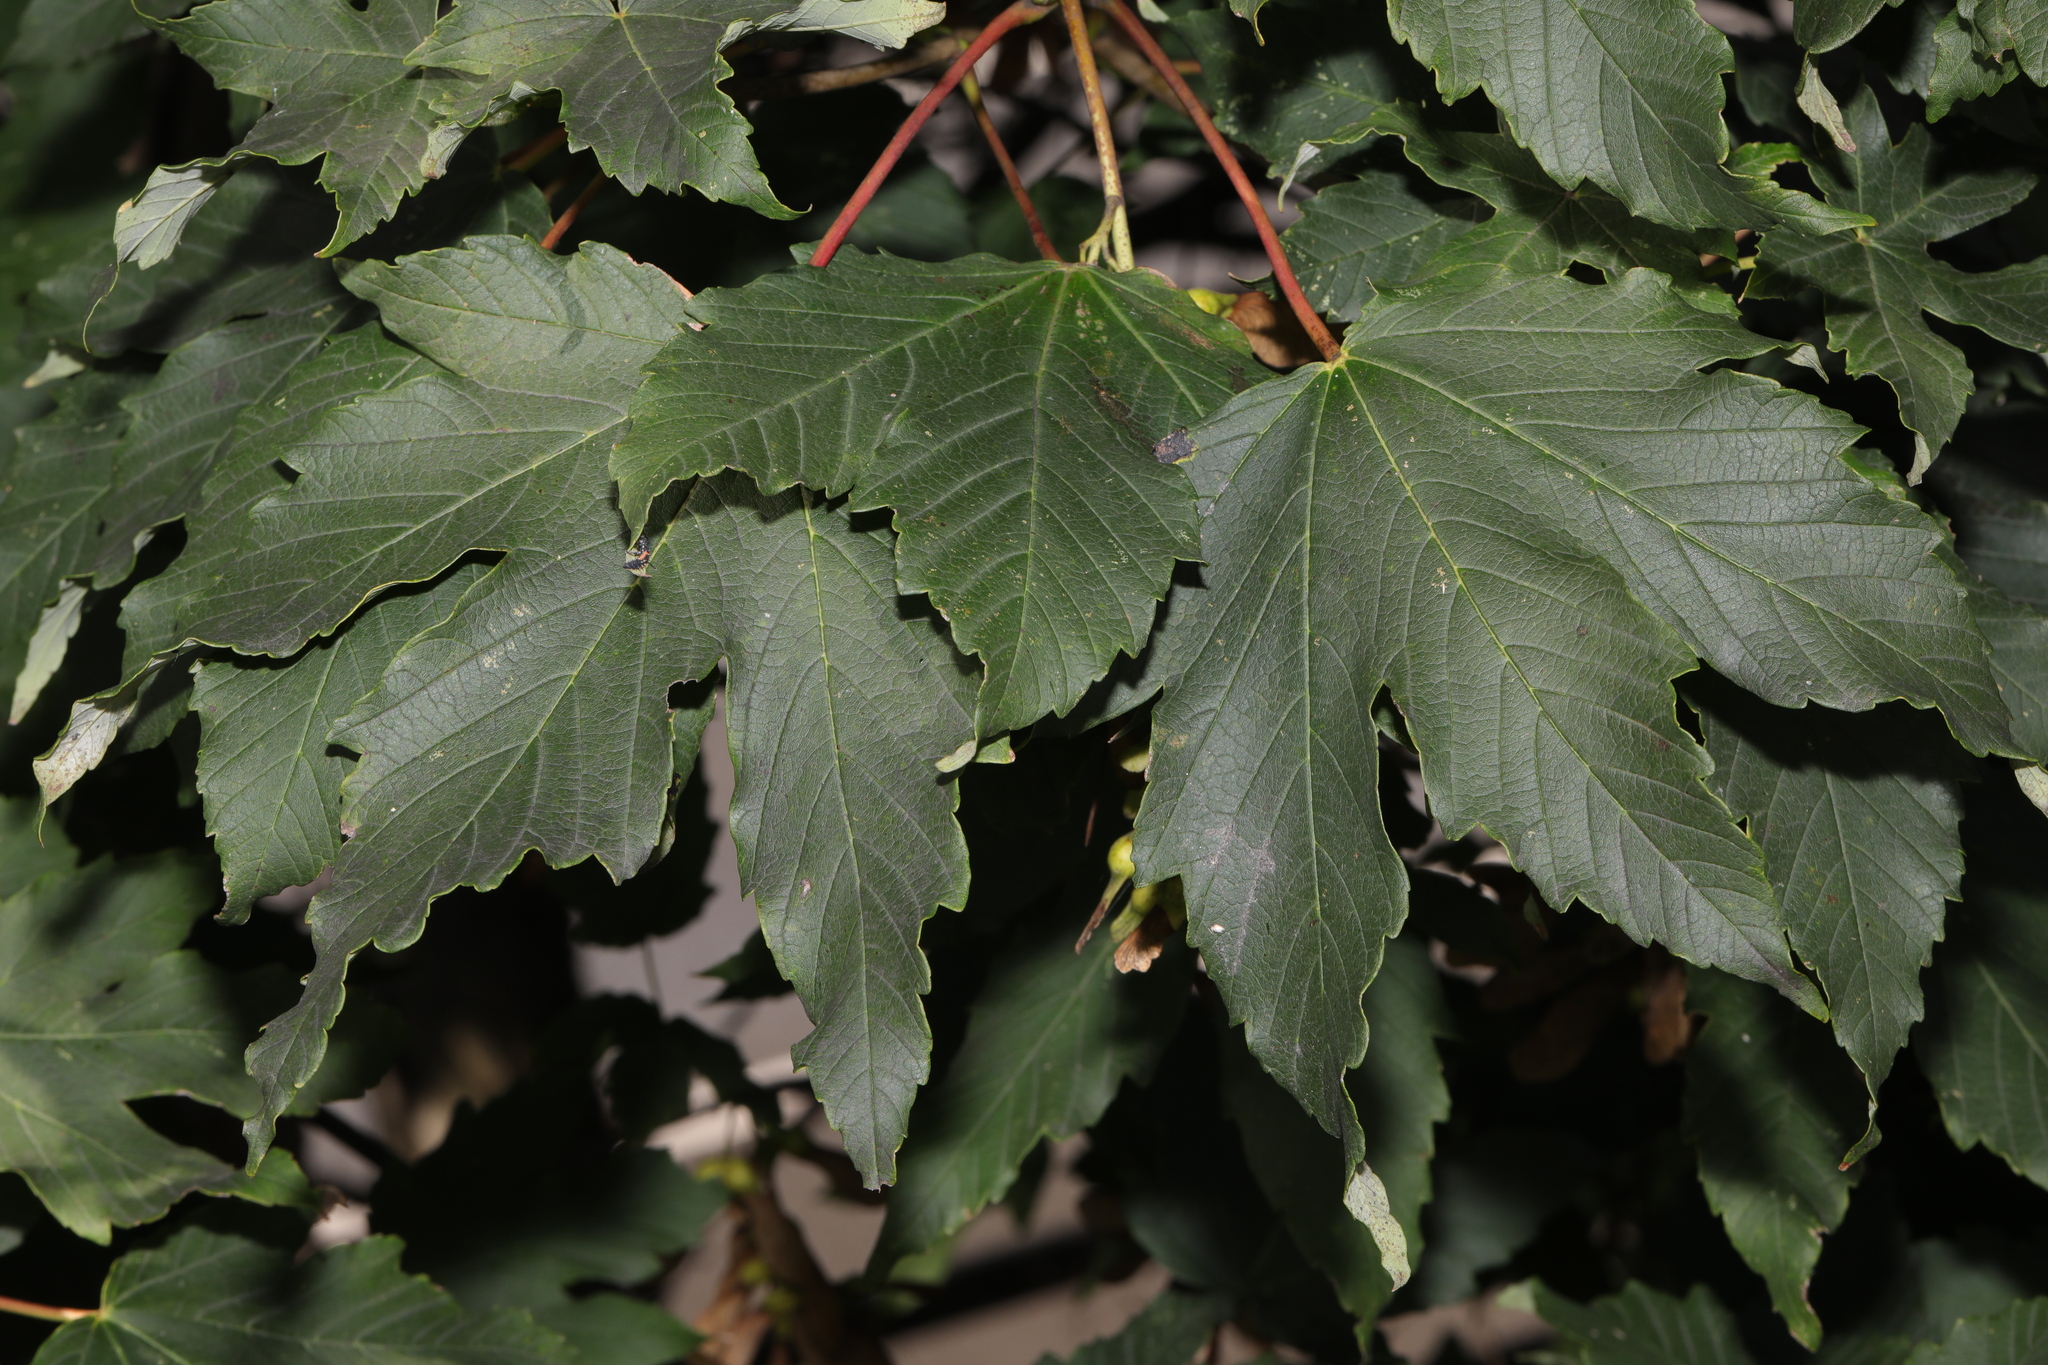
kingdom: Plantae
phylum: Tracheophyta
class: Magnoliopsida
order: Sapindales
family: Sapindaceae
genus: Acer
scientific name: Acer pseudoplatanus
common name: Sycamore
